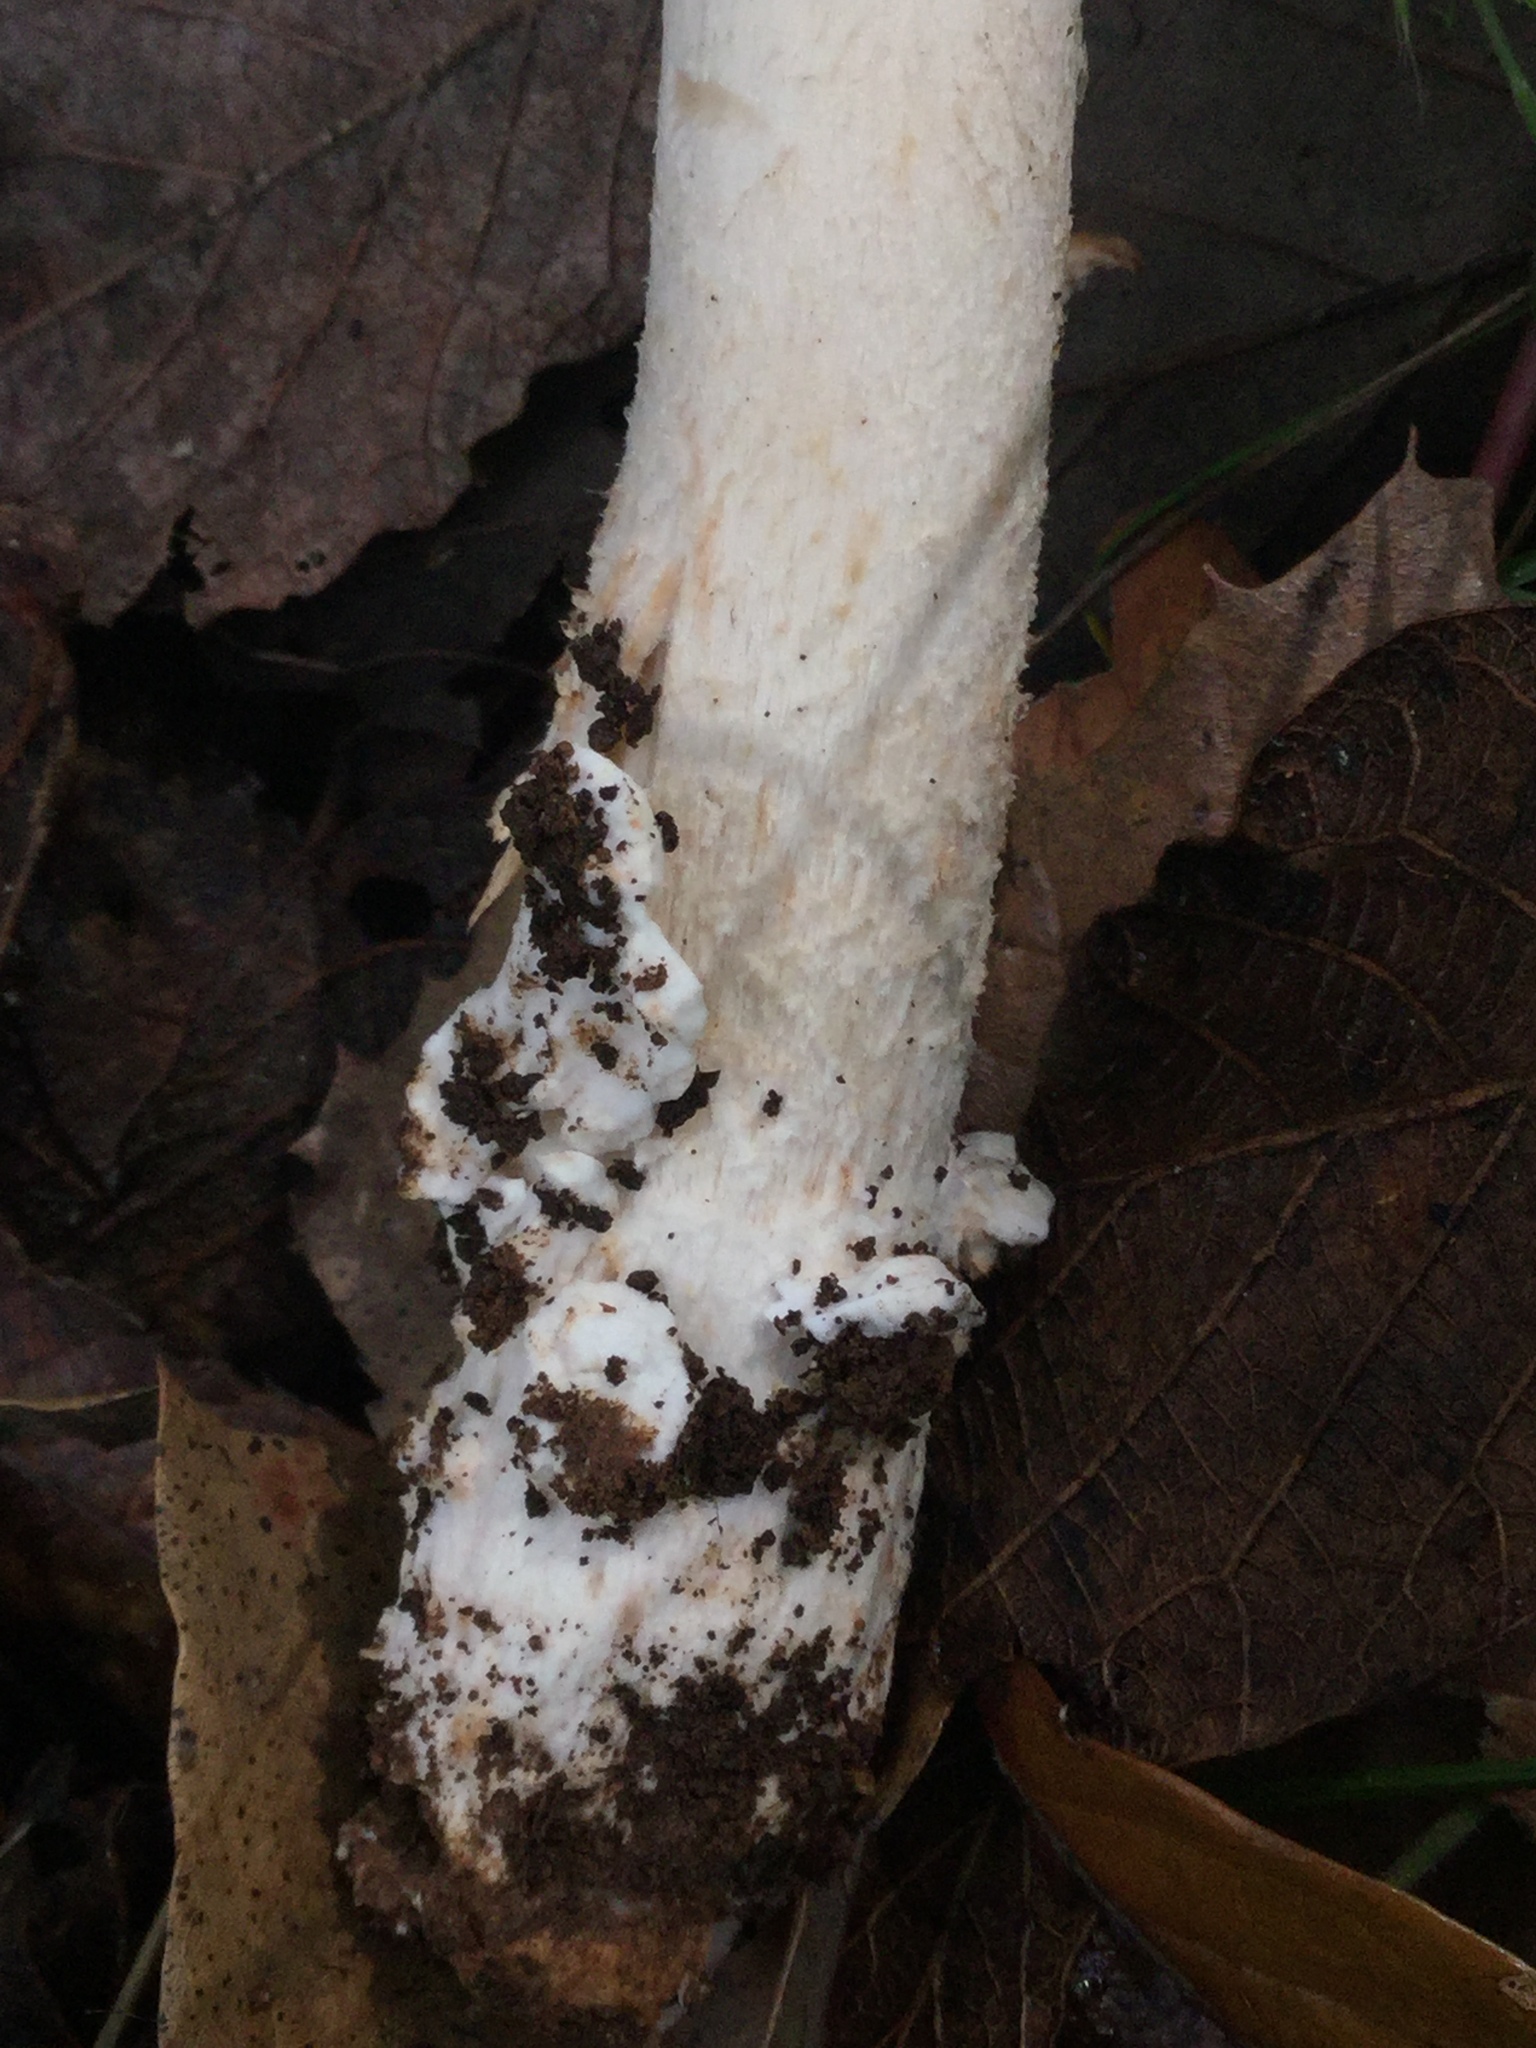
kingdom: Fungi
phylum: Basidiomycota
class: Agaricomycetes
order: Agaricales
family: Amanitaceae
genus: Amanita
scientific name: Amanita arocheae
